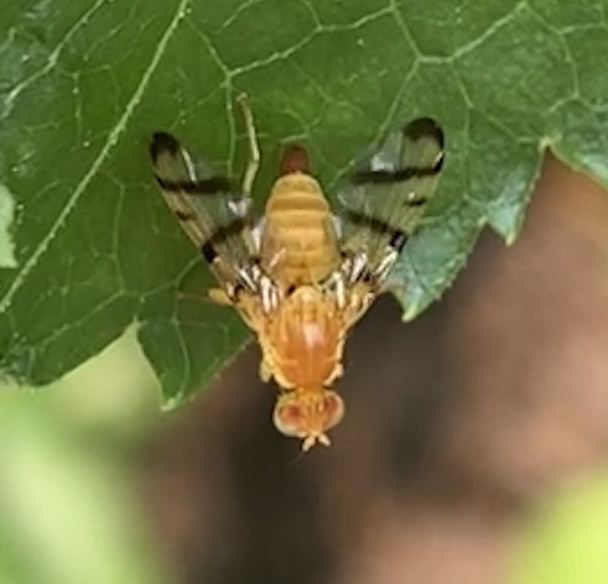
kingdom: Animalia
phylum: Arthropoda
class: Insecta
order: Diptera
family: Tephritidae
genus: Rhagoletis
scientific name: Rhagoletis basiola
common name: Rose hip fly
